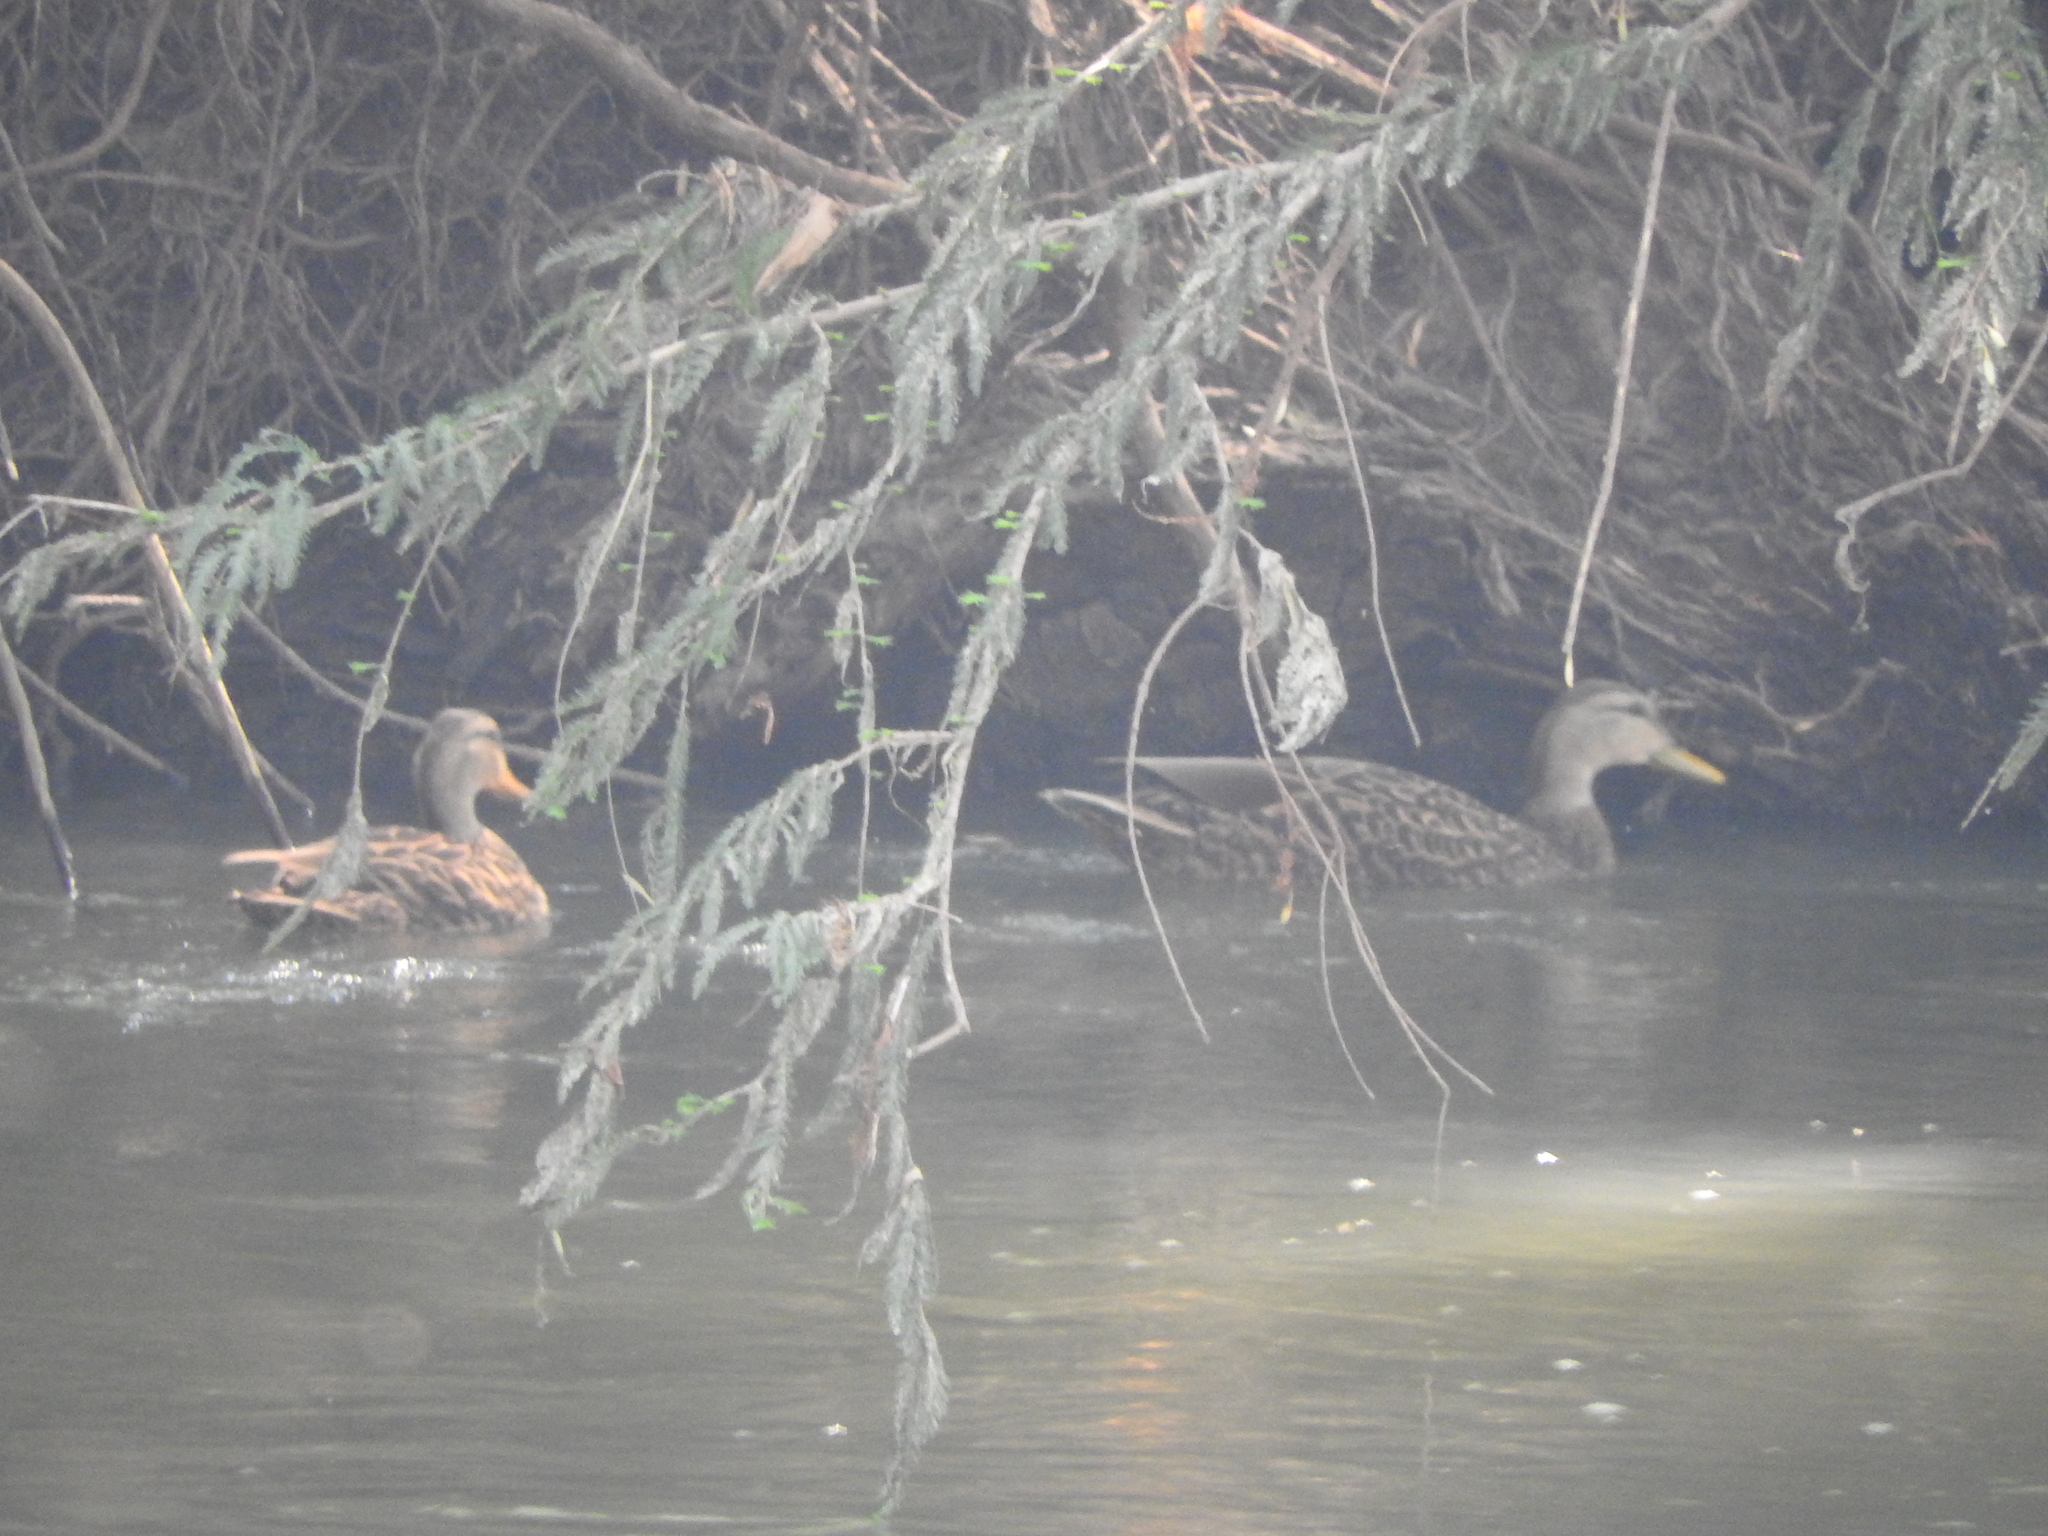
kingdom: Animalia
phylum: Chordata
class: Aves
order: Anseriformes
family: Anatidae
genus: Anas
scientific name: Anas diazi
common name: Mexican duck
